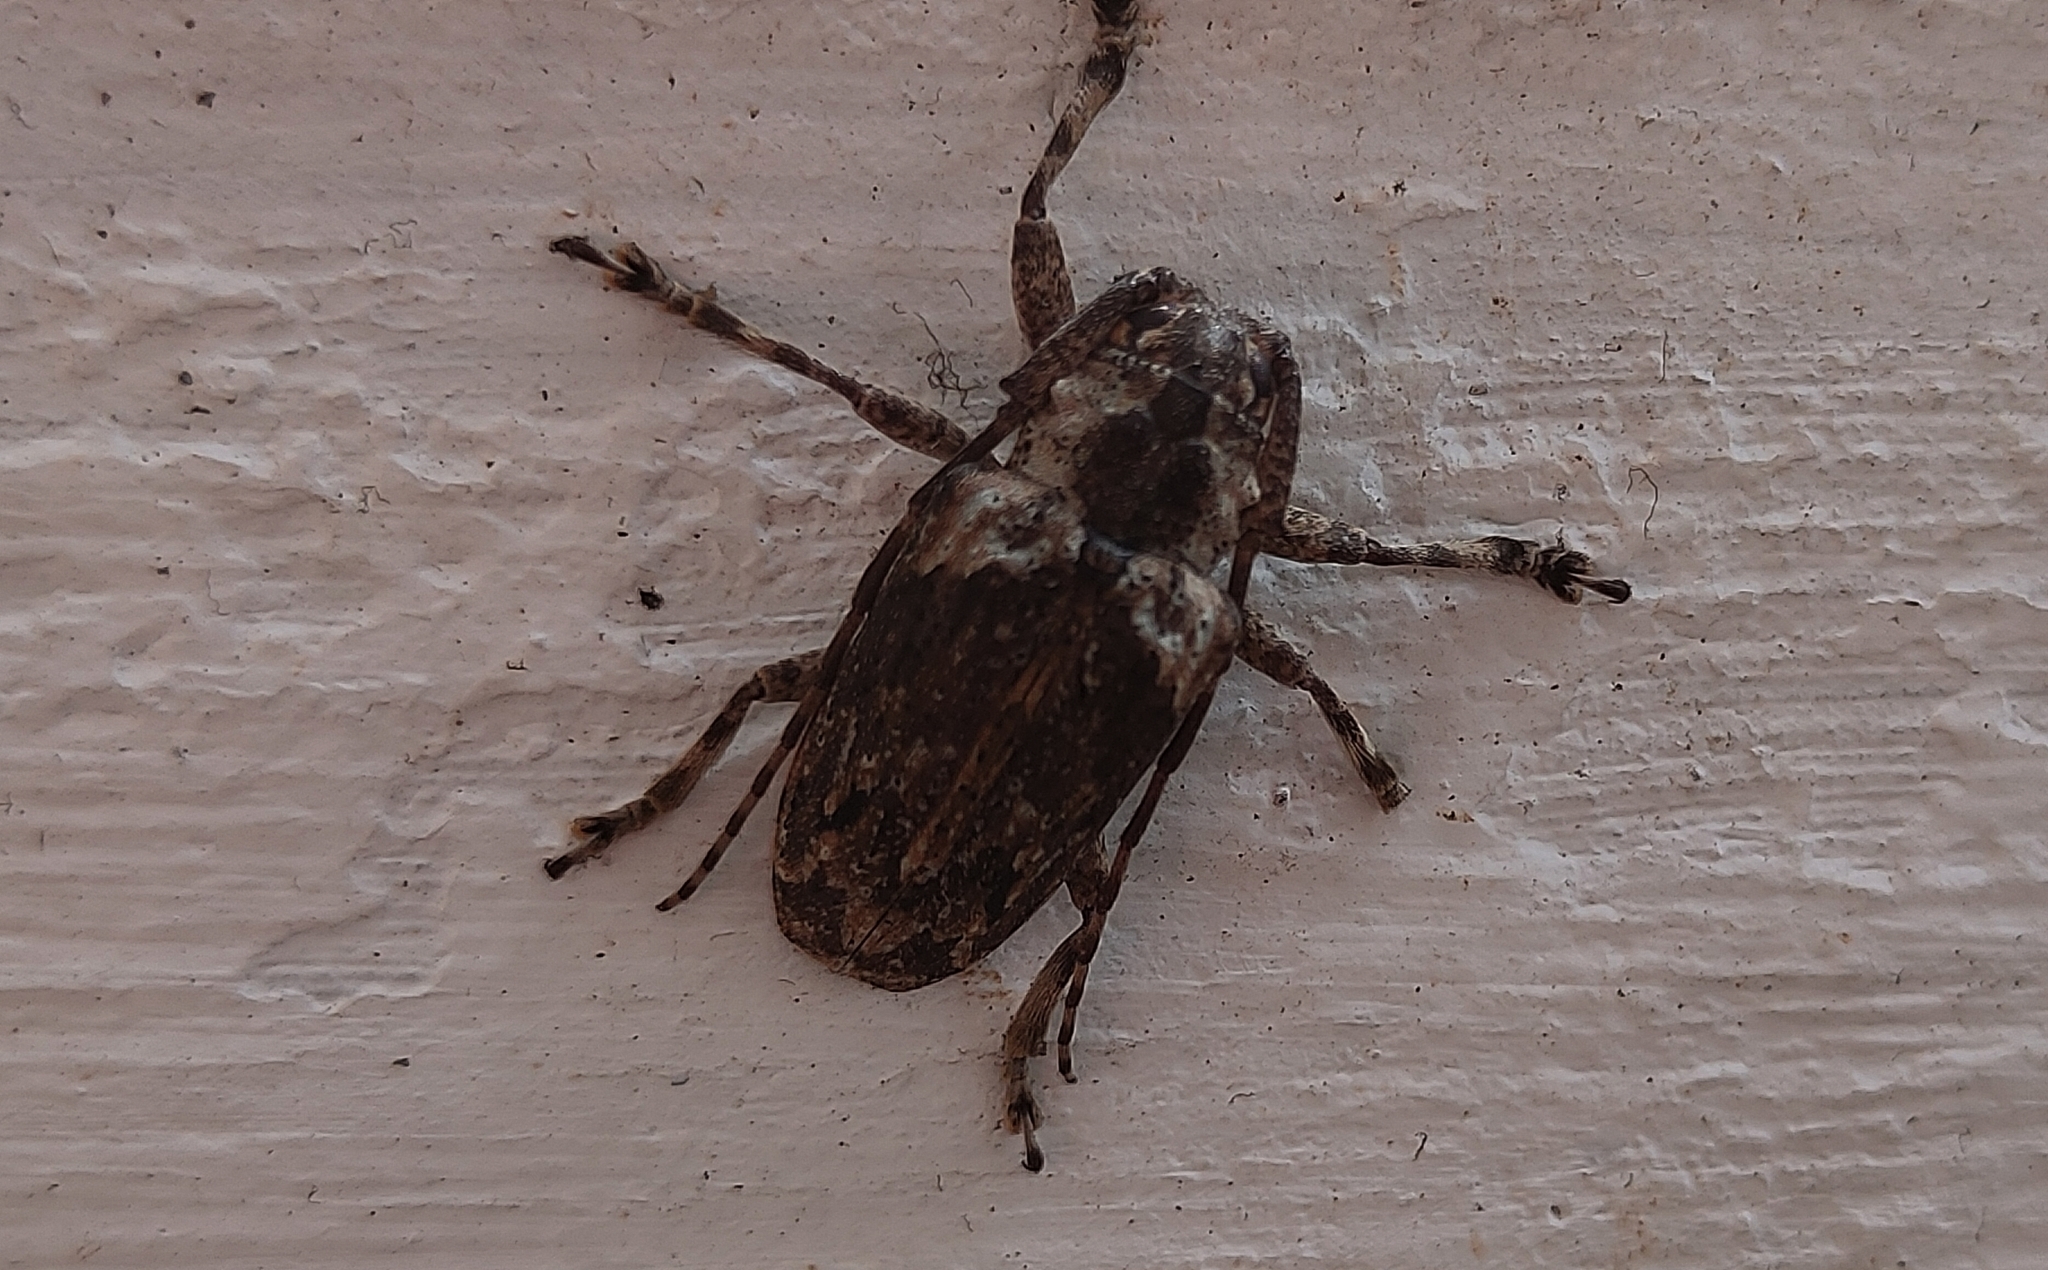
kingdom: Animalia
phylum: Arthropoda
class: Insecta
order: Coleoptera
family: Cerambycidae
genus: Coptops
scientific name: Coptops aedificator
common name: Long-horned beetle
